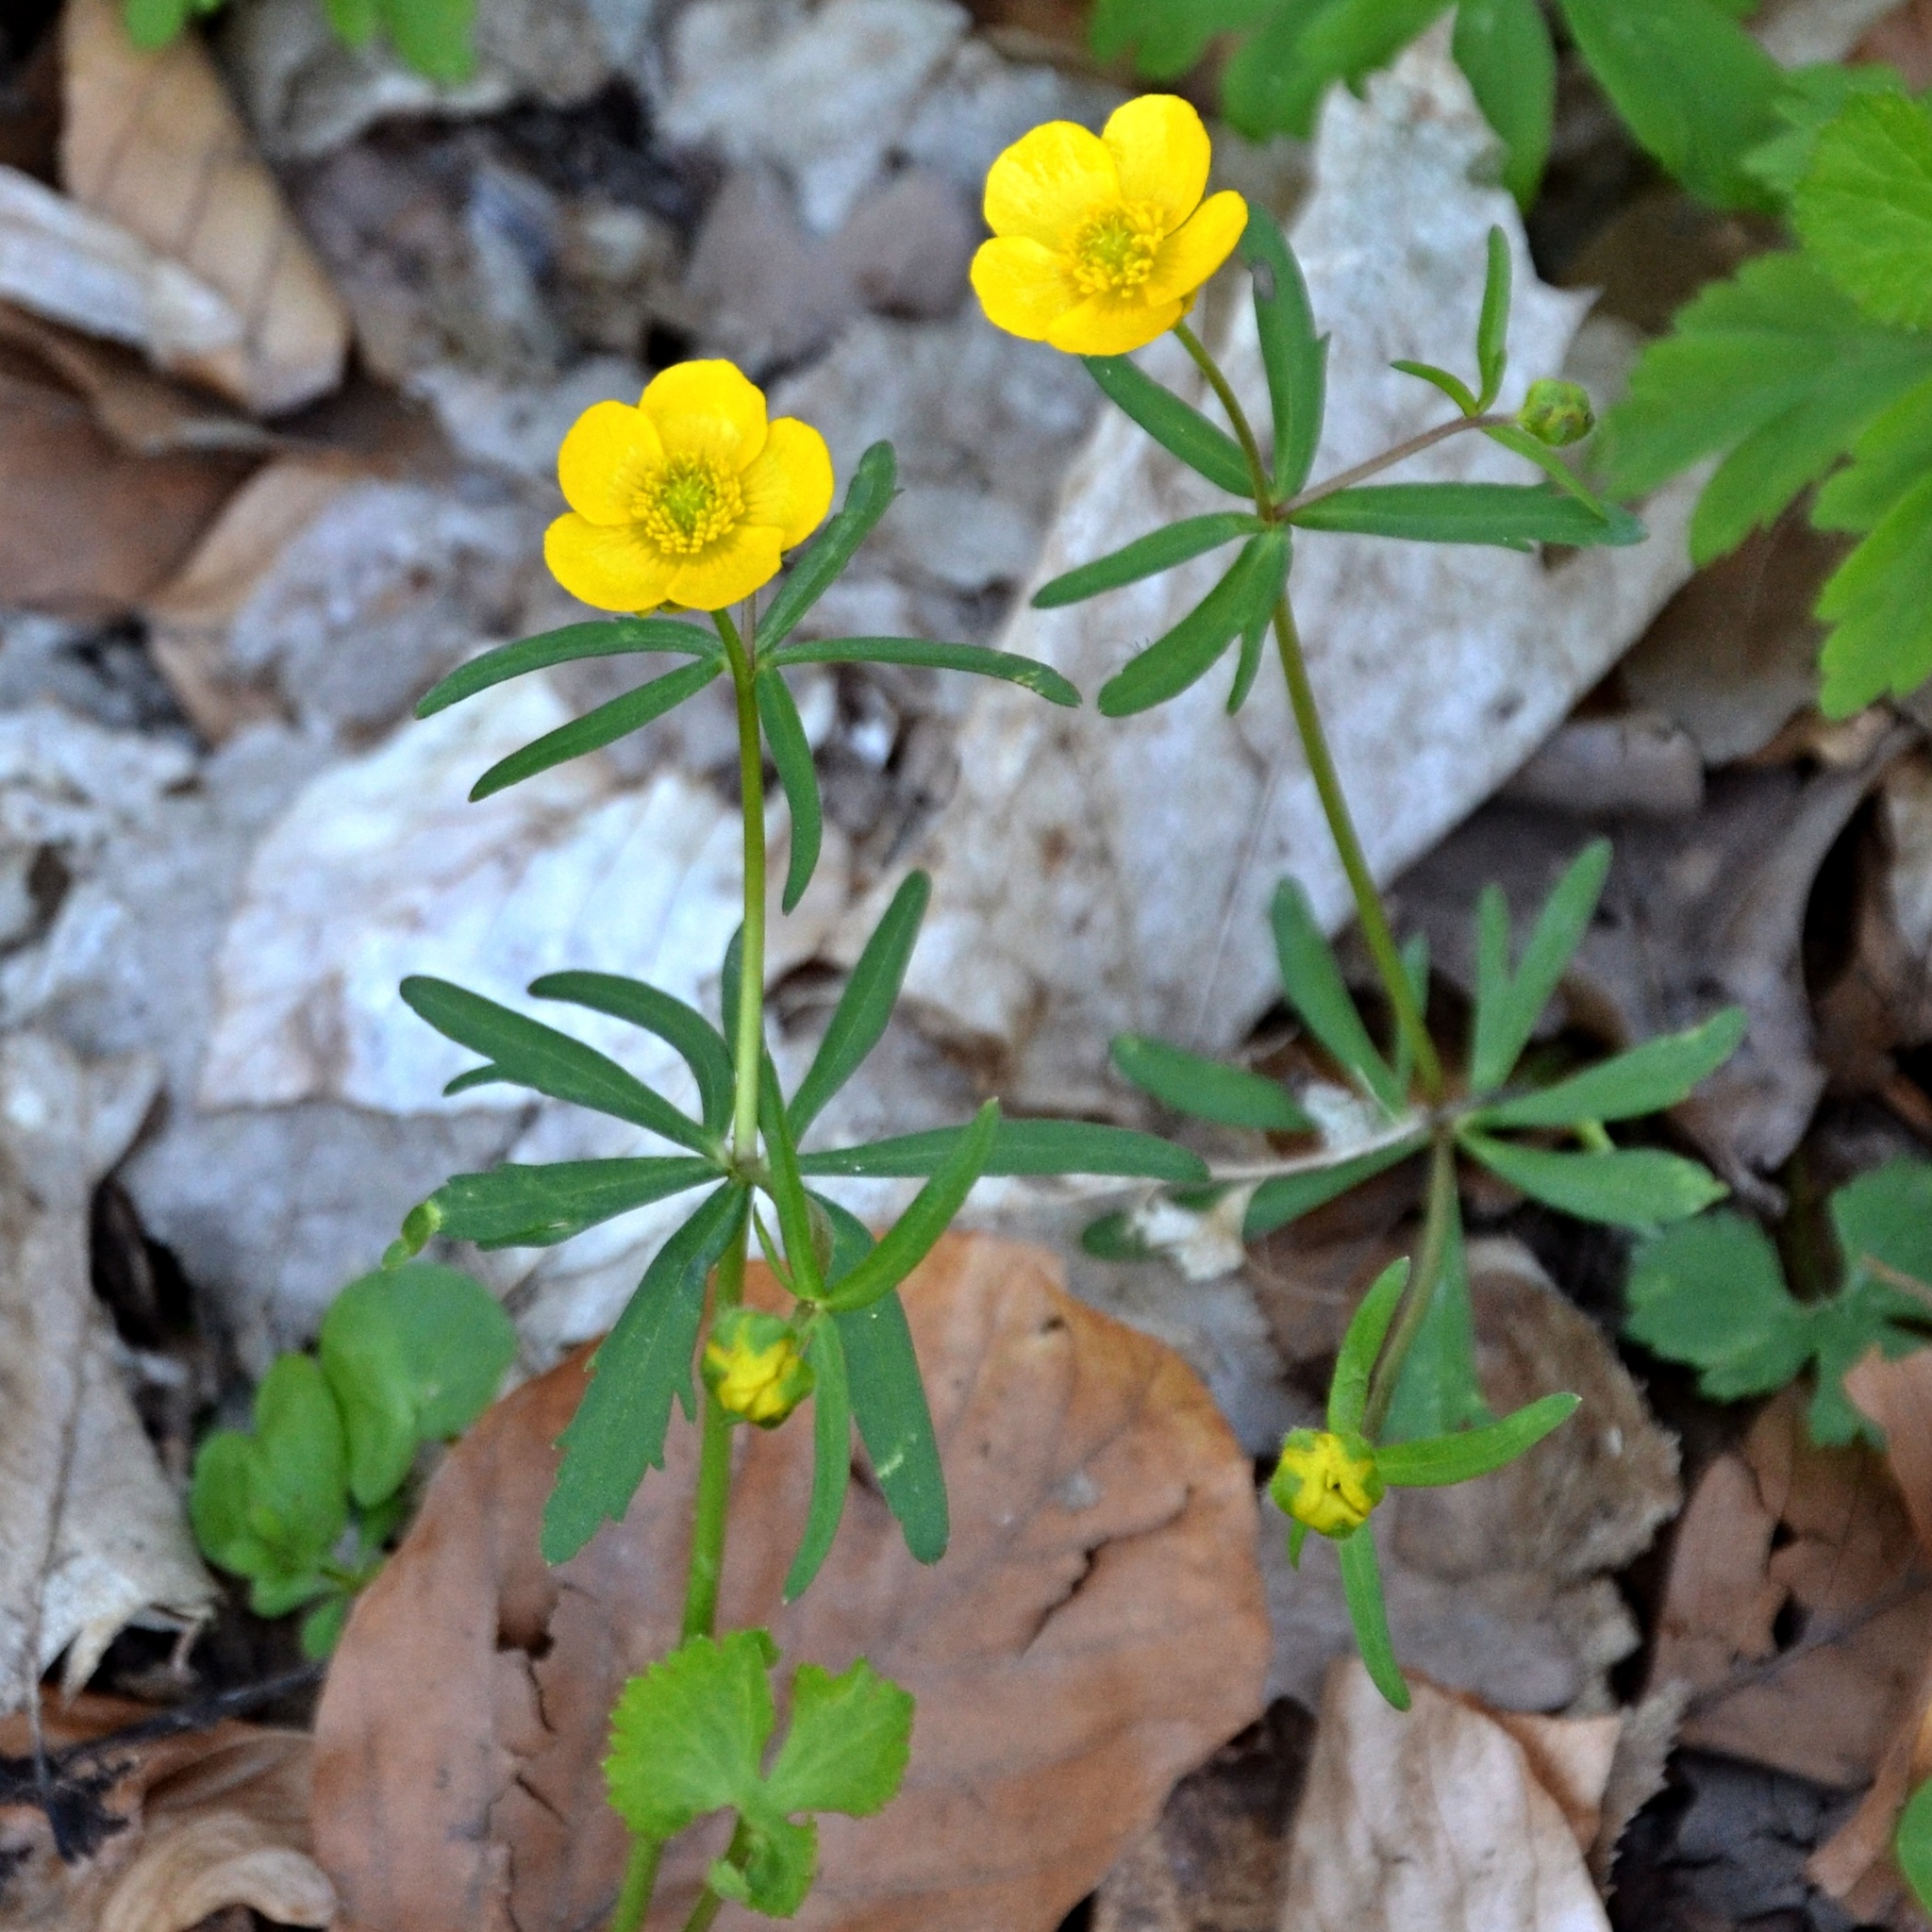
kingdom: Plantae
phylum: Tracheophyta
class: Magnoliopsida
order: Ranunculales
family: Ranunculaceae
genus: Ranunculus
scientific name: Ranunculus auricomus
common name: Goldilocks buttercup
